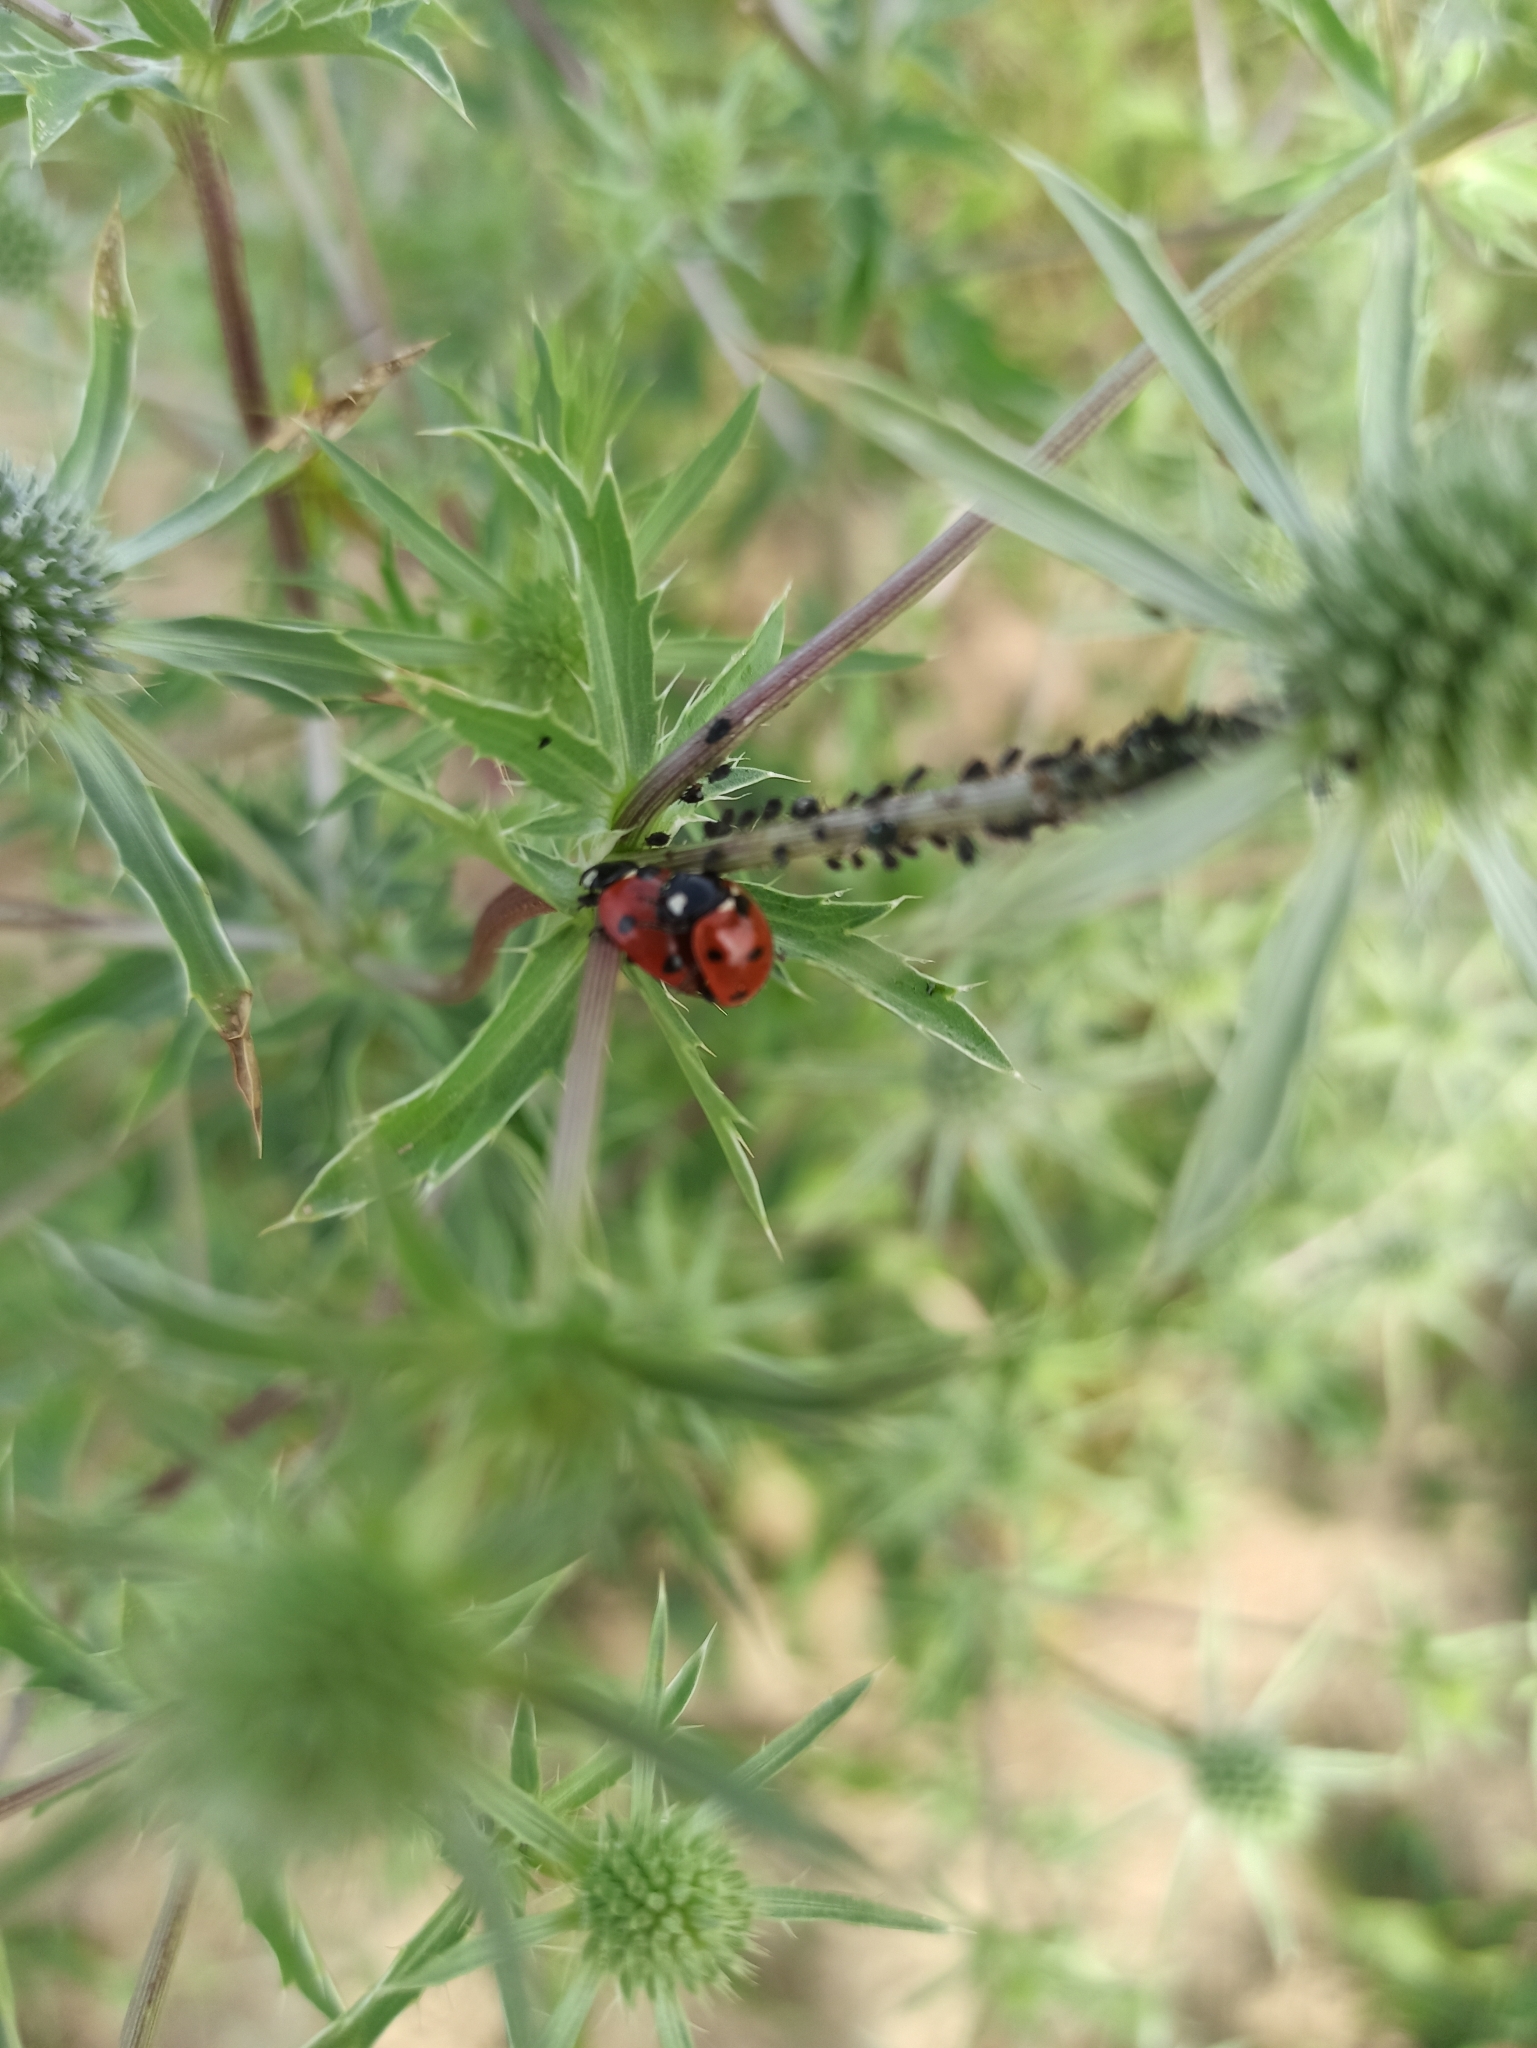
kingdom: Animalia
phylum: Arthropoda
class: Insecta
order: Coleoptera
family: Coccinellidae
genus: Coccinella
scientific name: Coccinella septempunctata
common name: Sevenspotted lady beetle
